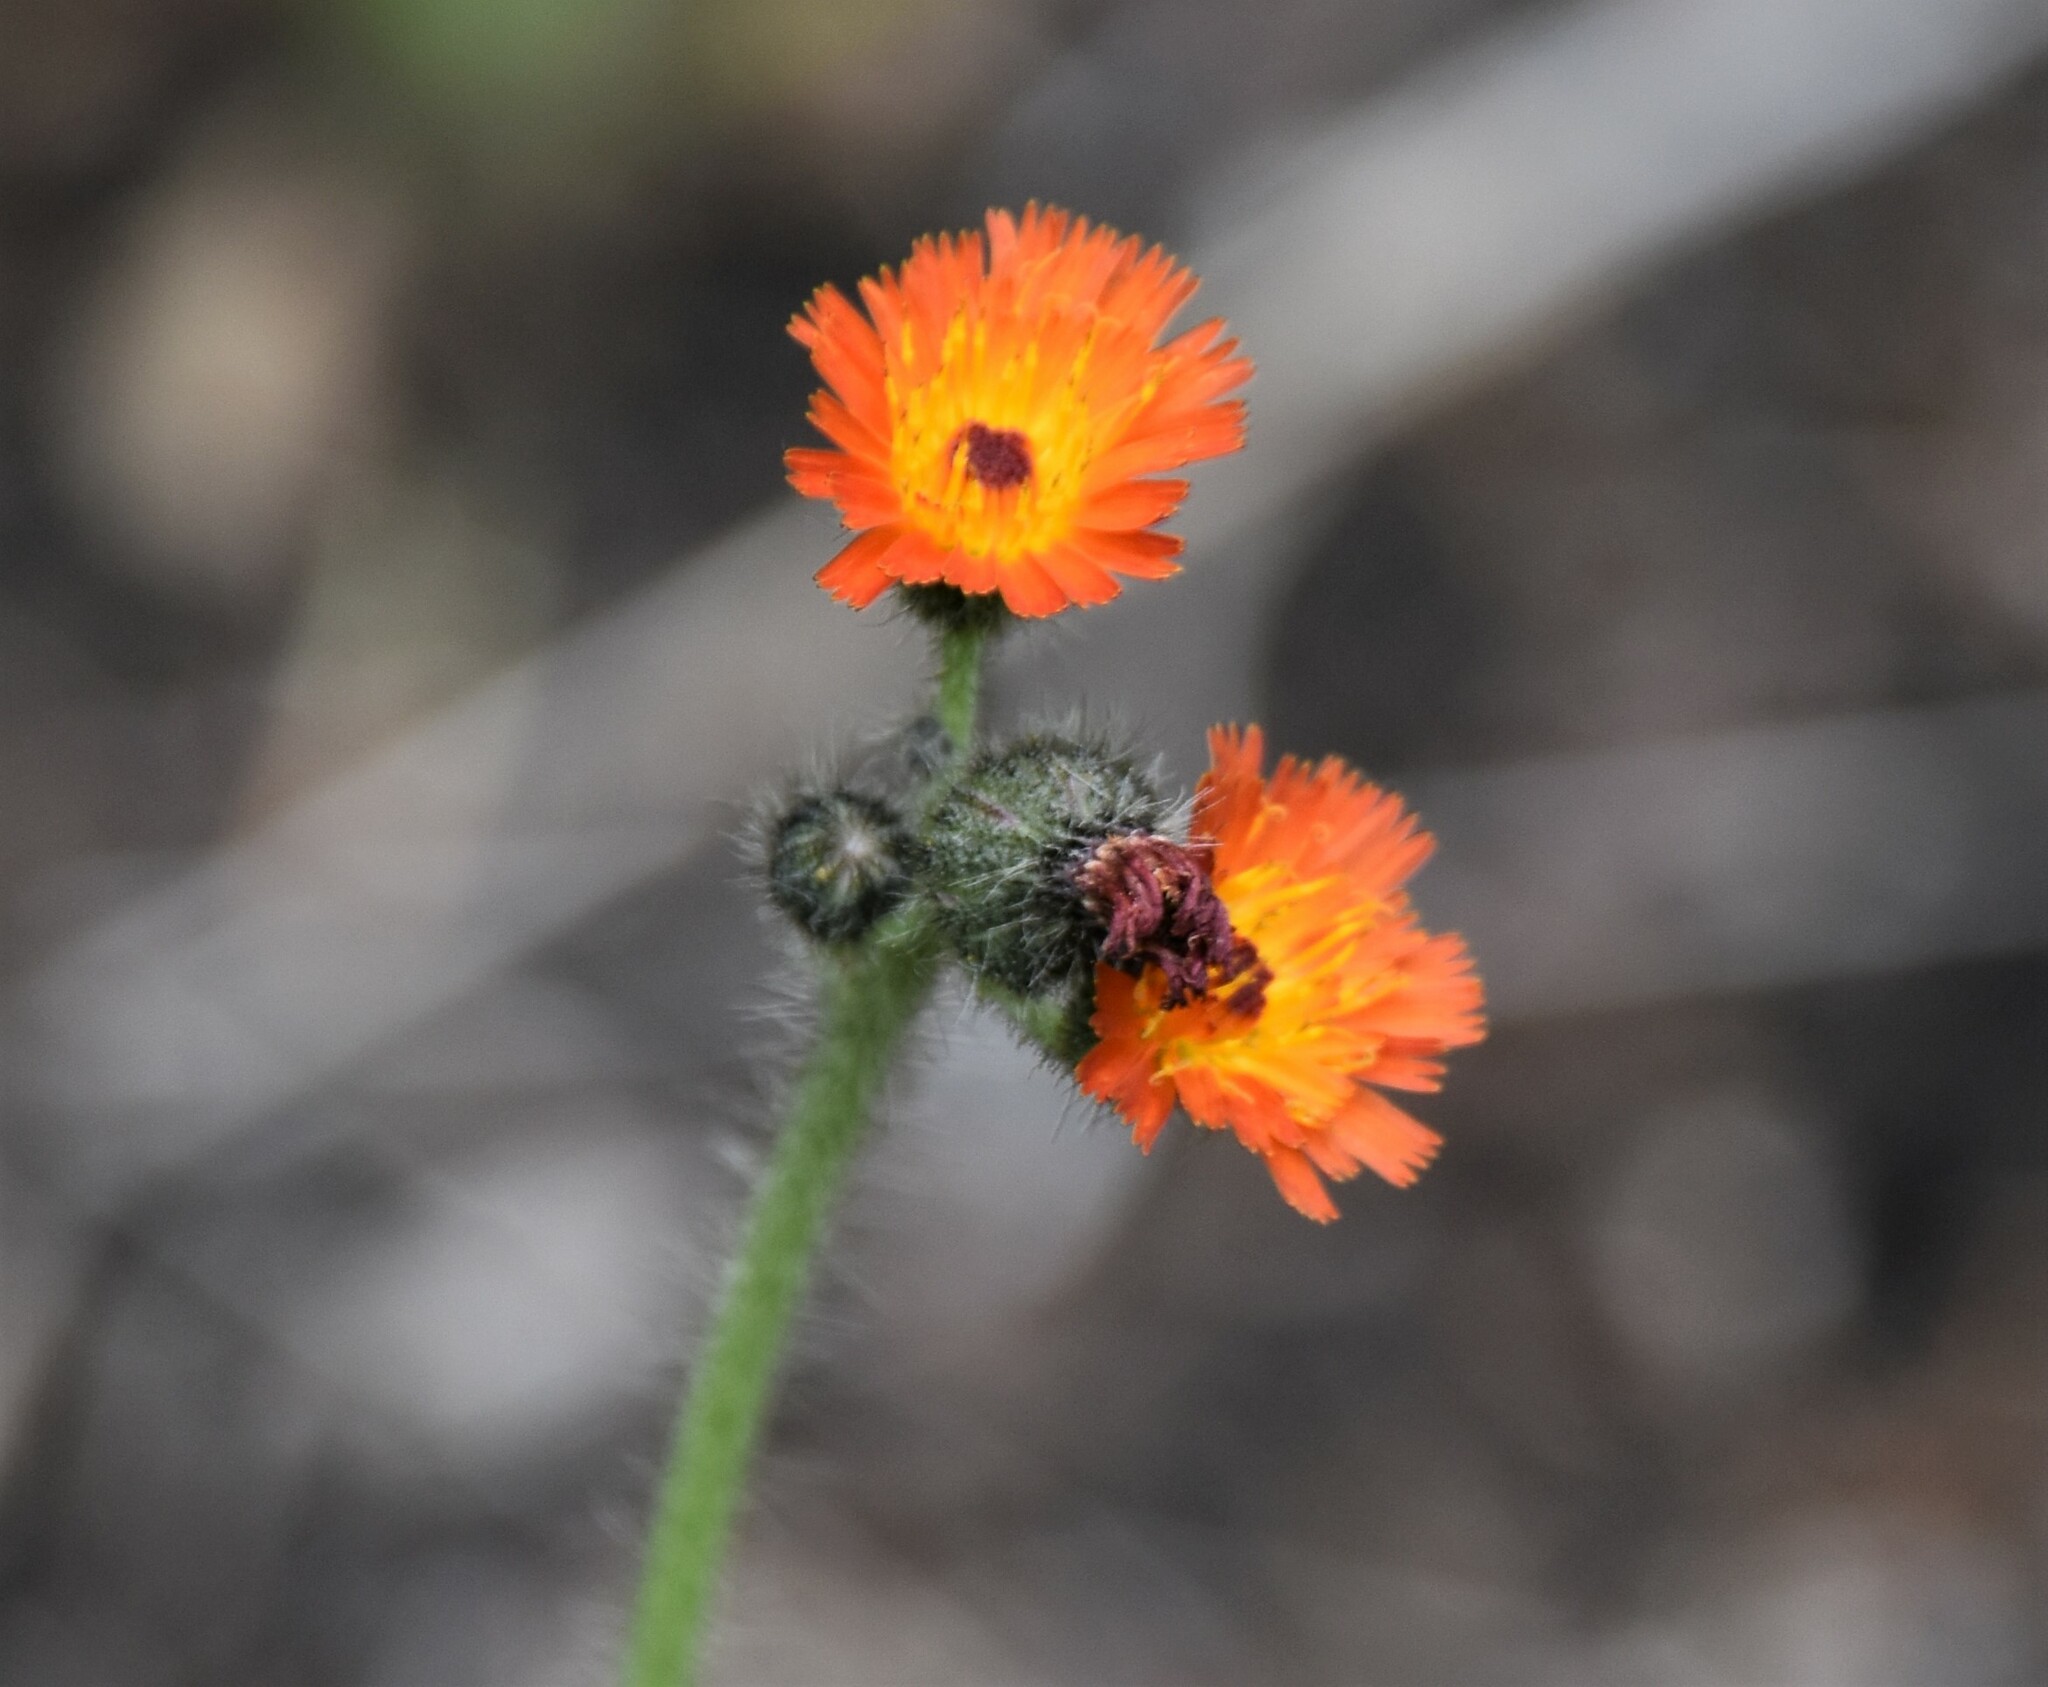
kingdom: Plantae
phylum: Tracheophyta
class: Magnoliopsida
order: Asterales
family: Asteraceae
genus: Pilosella
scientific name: Pilosella aurantiaca
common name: Fox-and-cubs
